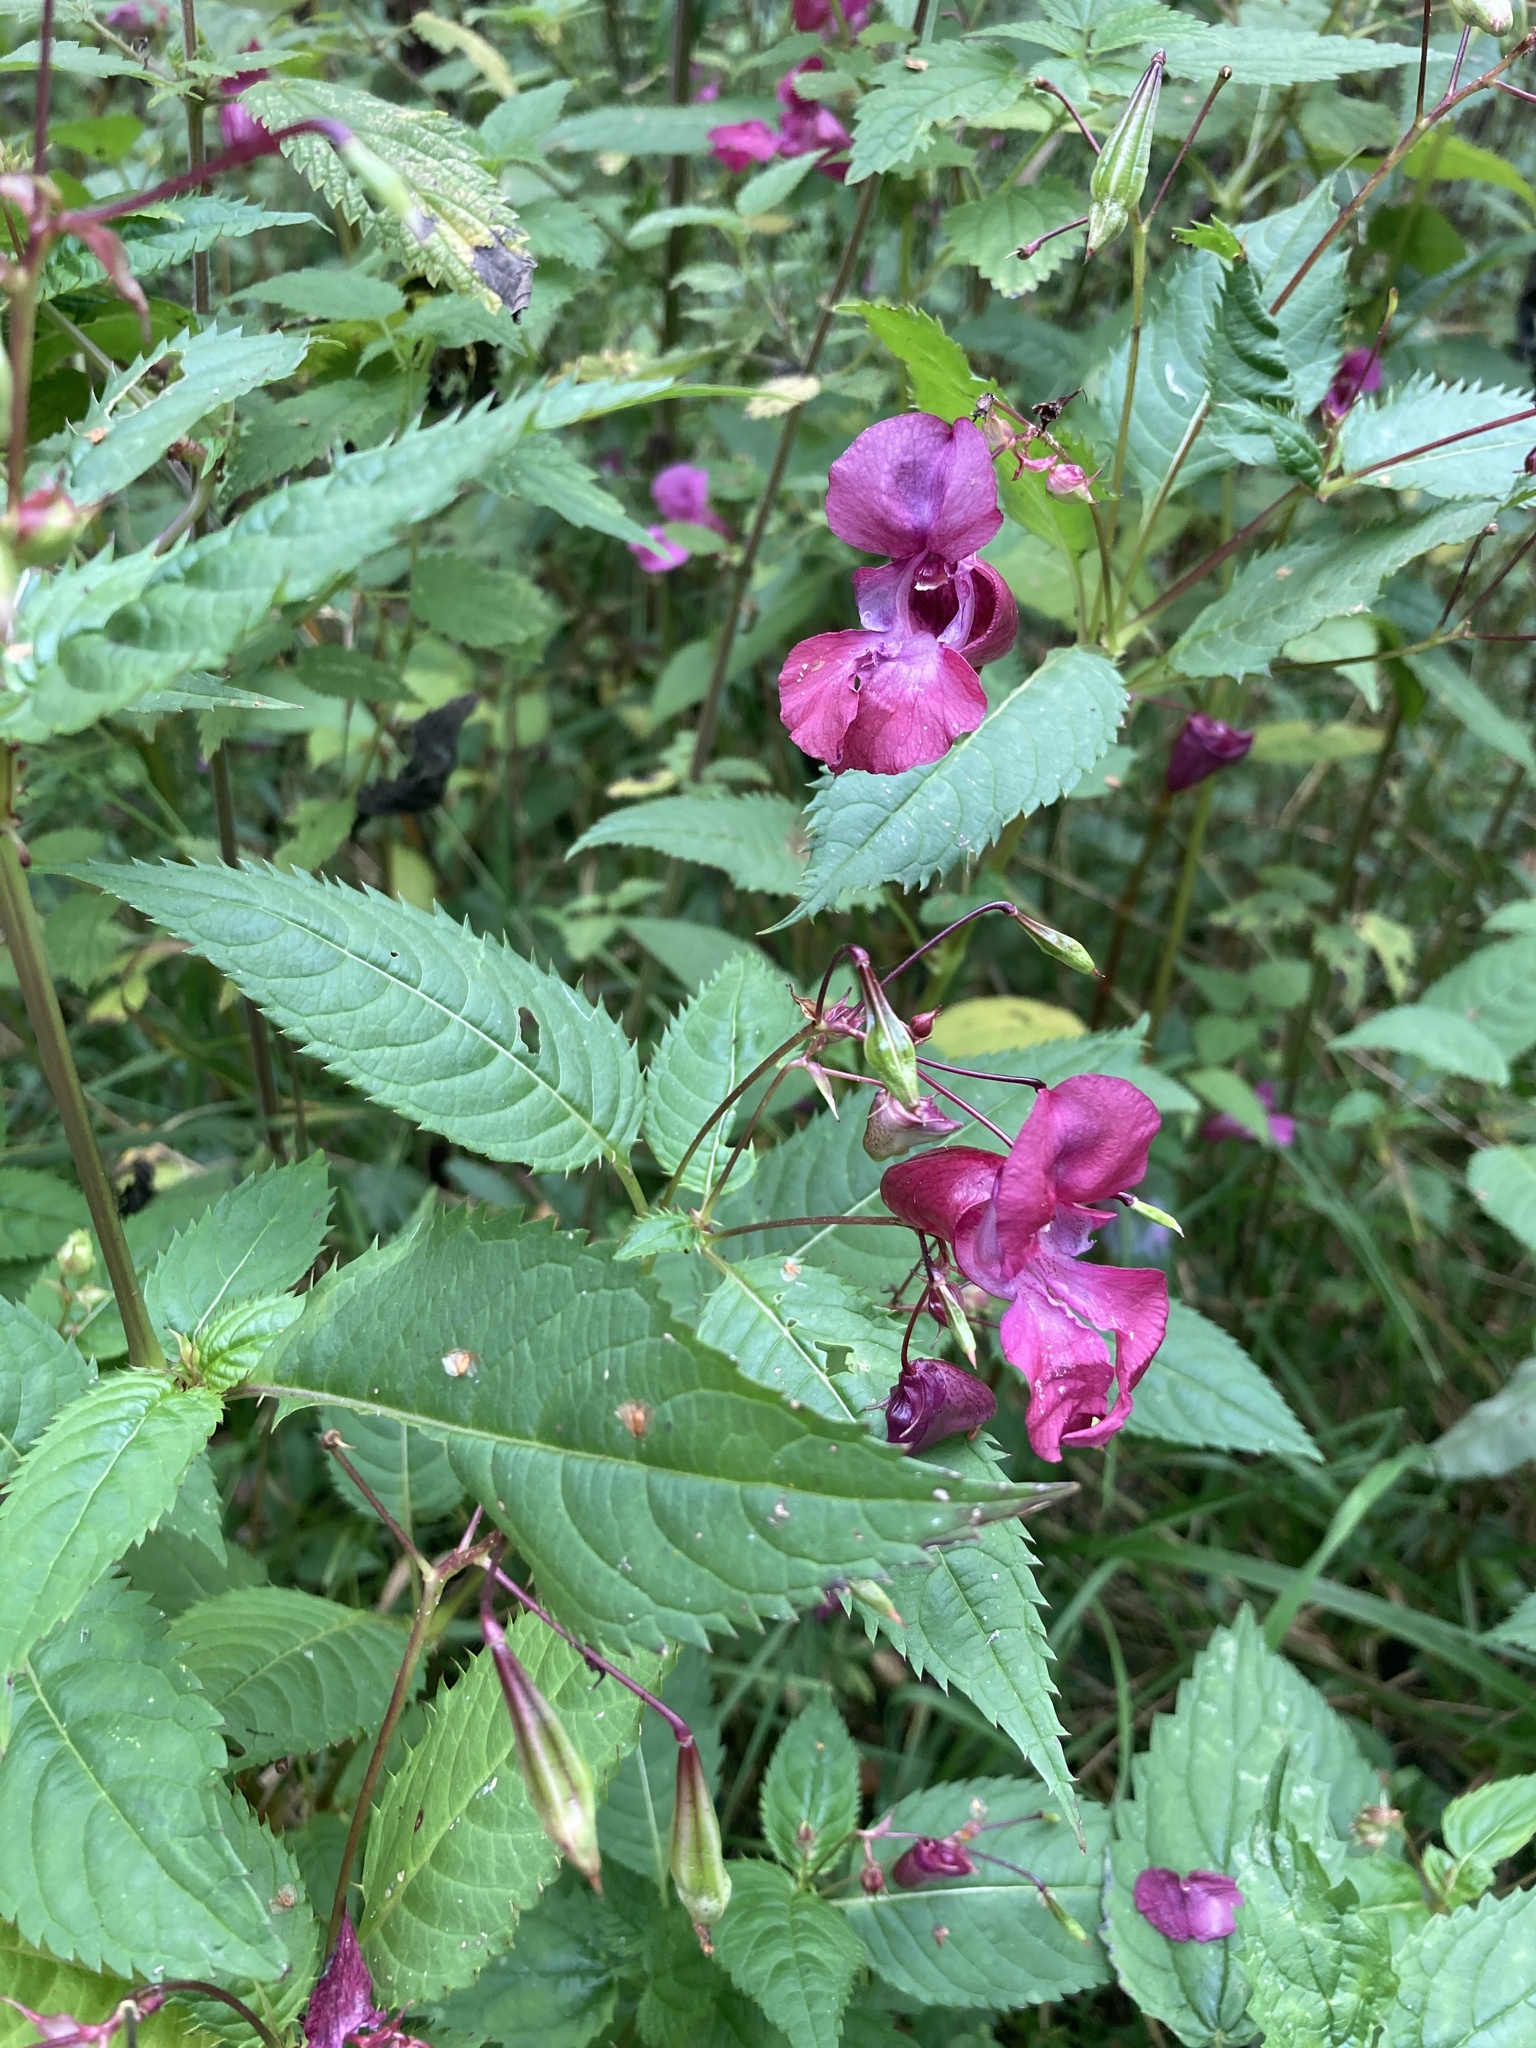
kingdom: Plantae
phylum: Tracheophyta
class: Magnoliopsida
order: Ericales
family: Balsaminaceae
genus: Impatiens
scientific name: Impatiens glandulifera
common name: Himalayan balsam
